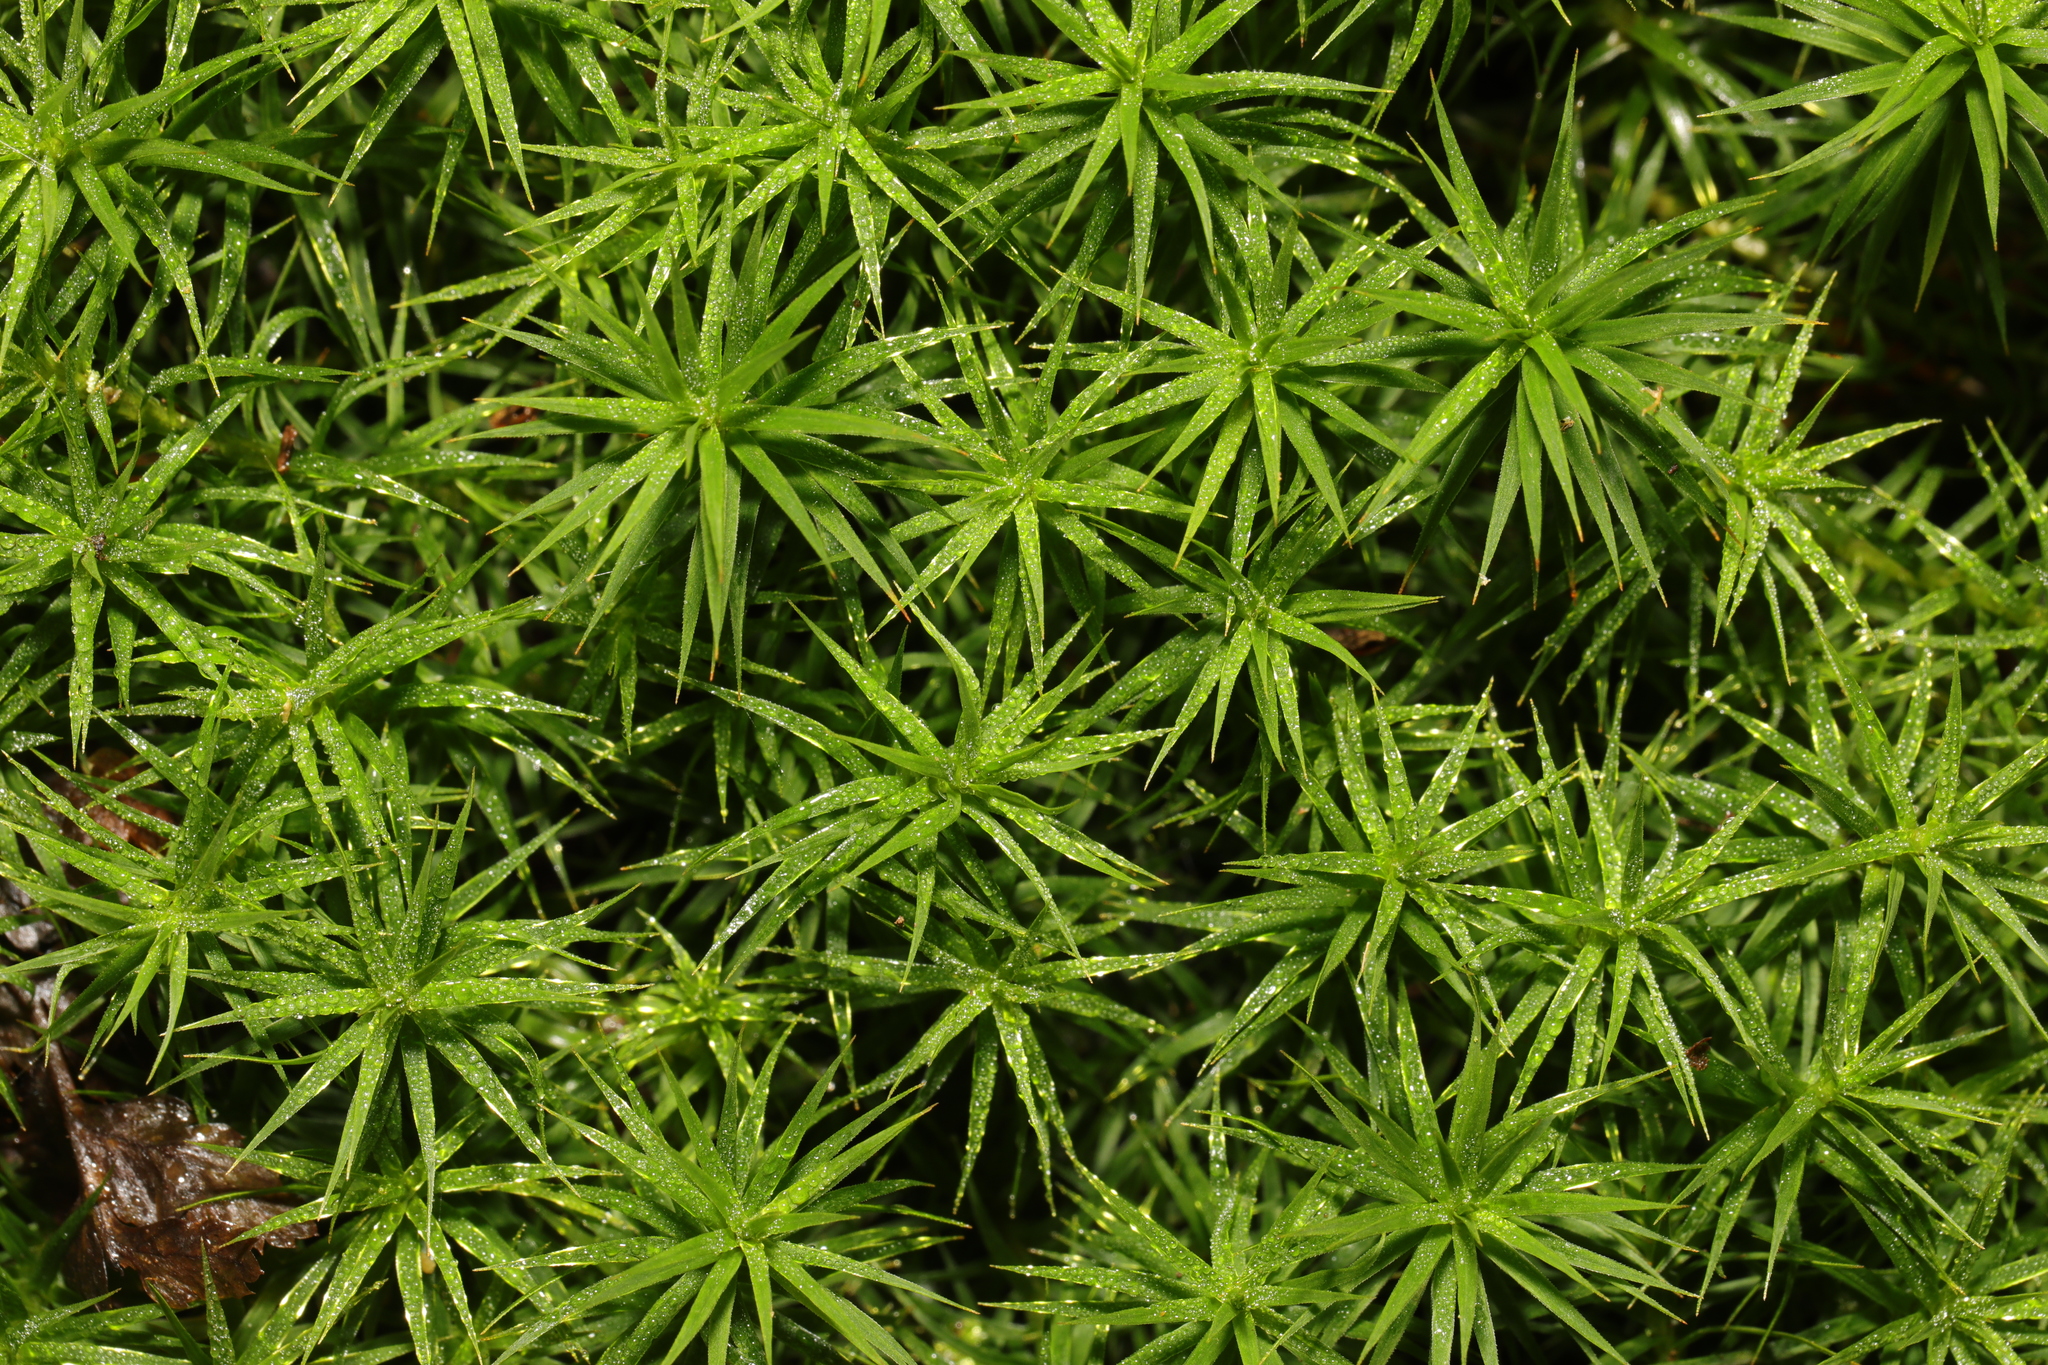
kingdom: Plantae
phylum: Bryophyta
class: Polytrichopsida
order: Polytrichales
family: Polytrichaceae
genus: Polytrichum
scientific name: Polytrichum formosum
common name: Bank haircap moss
